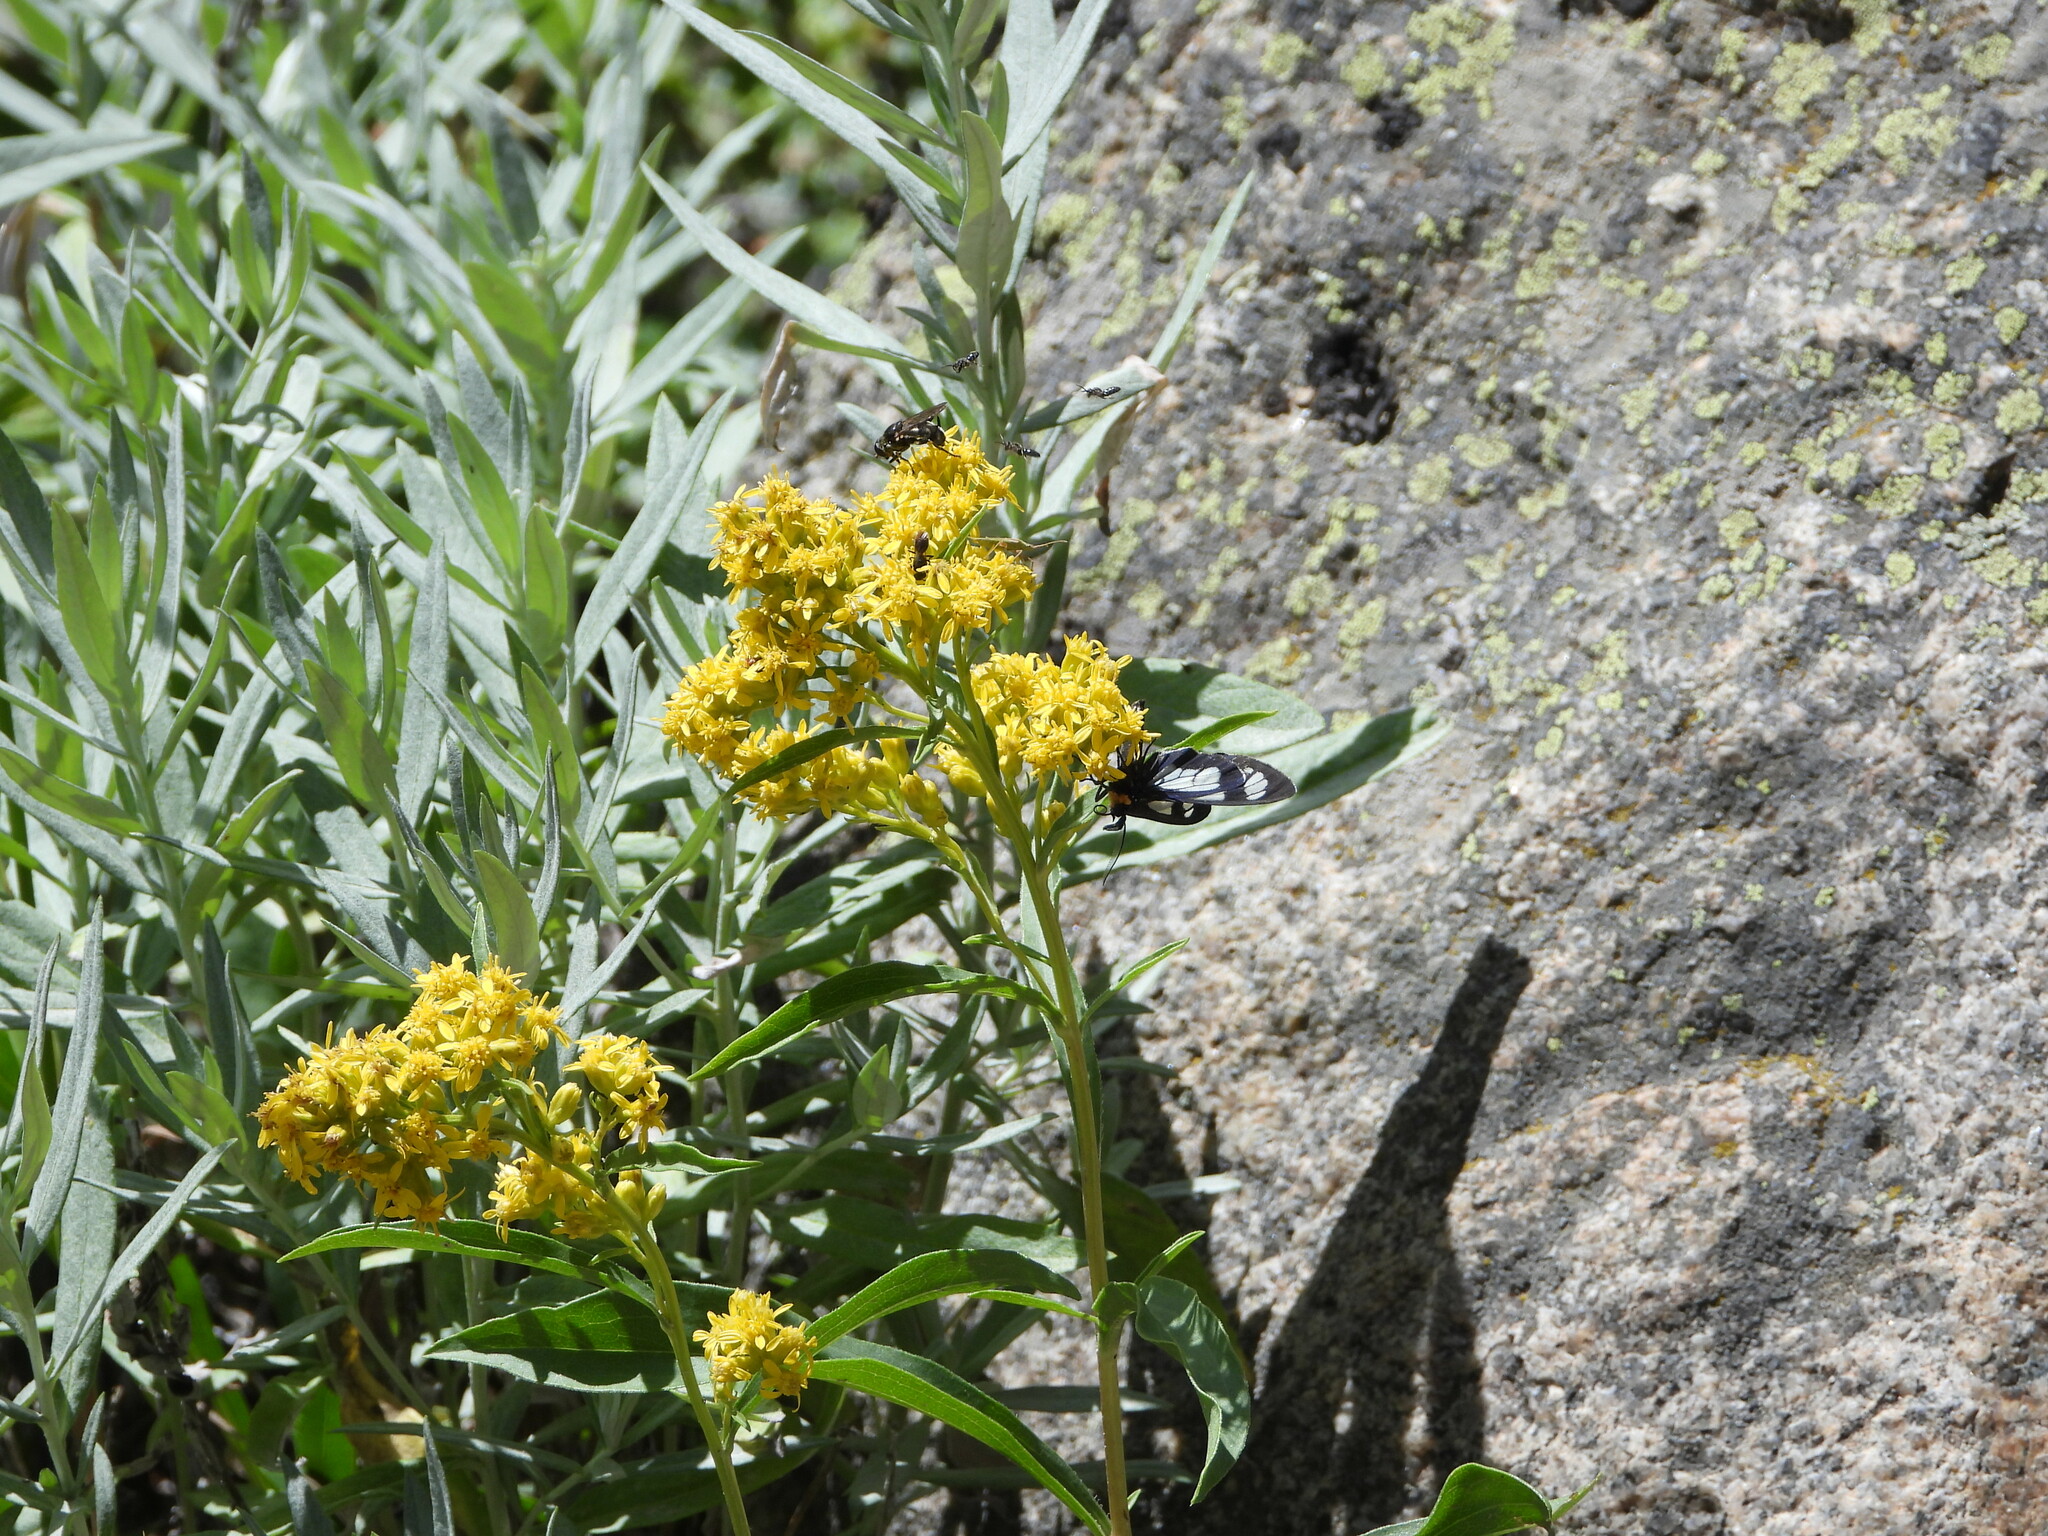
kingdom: Animalia
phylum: Arthropoda
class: Insecta
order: Lepidoptera
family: Erebidae
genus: Gnophaela
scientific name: Gnophaela vermiculata
